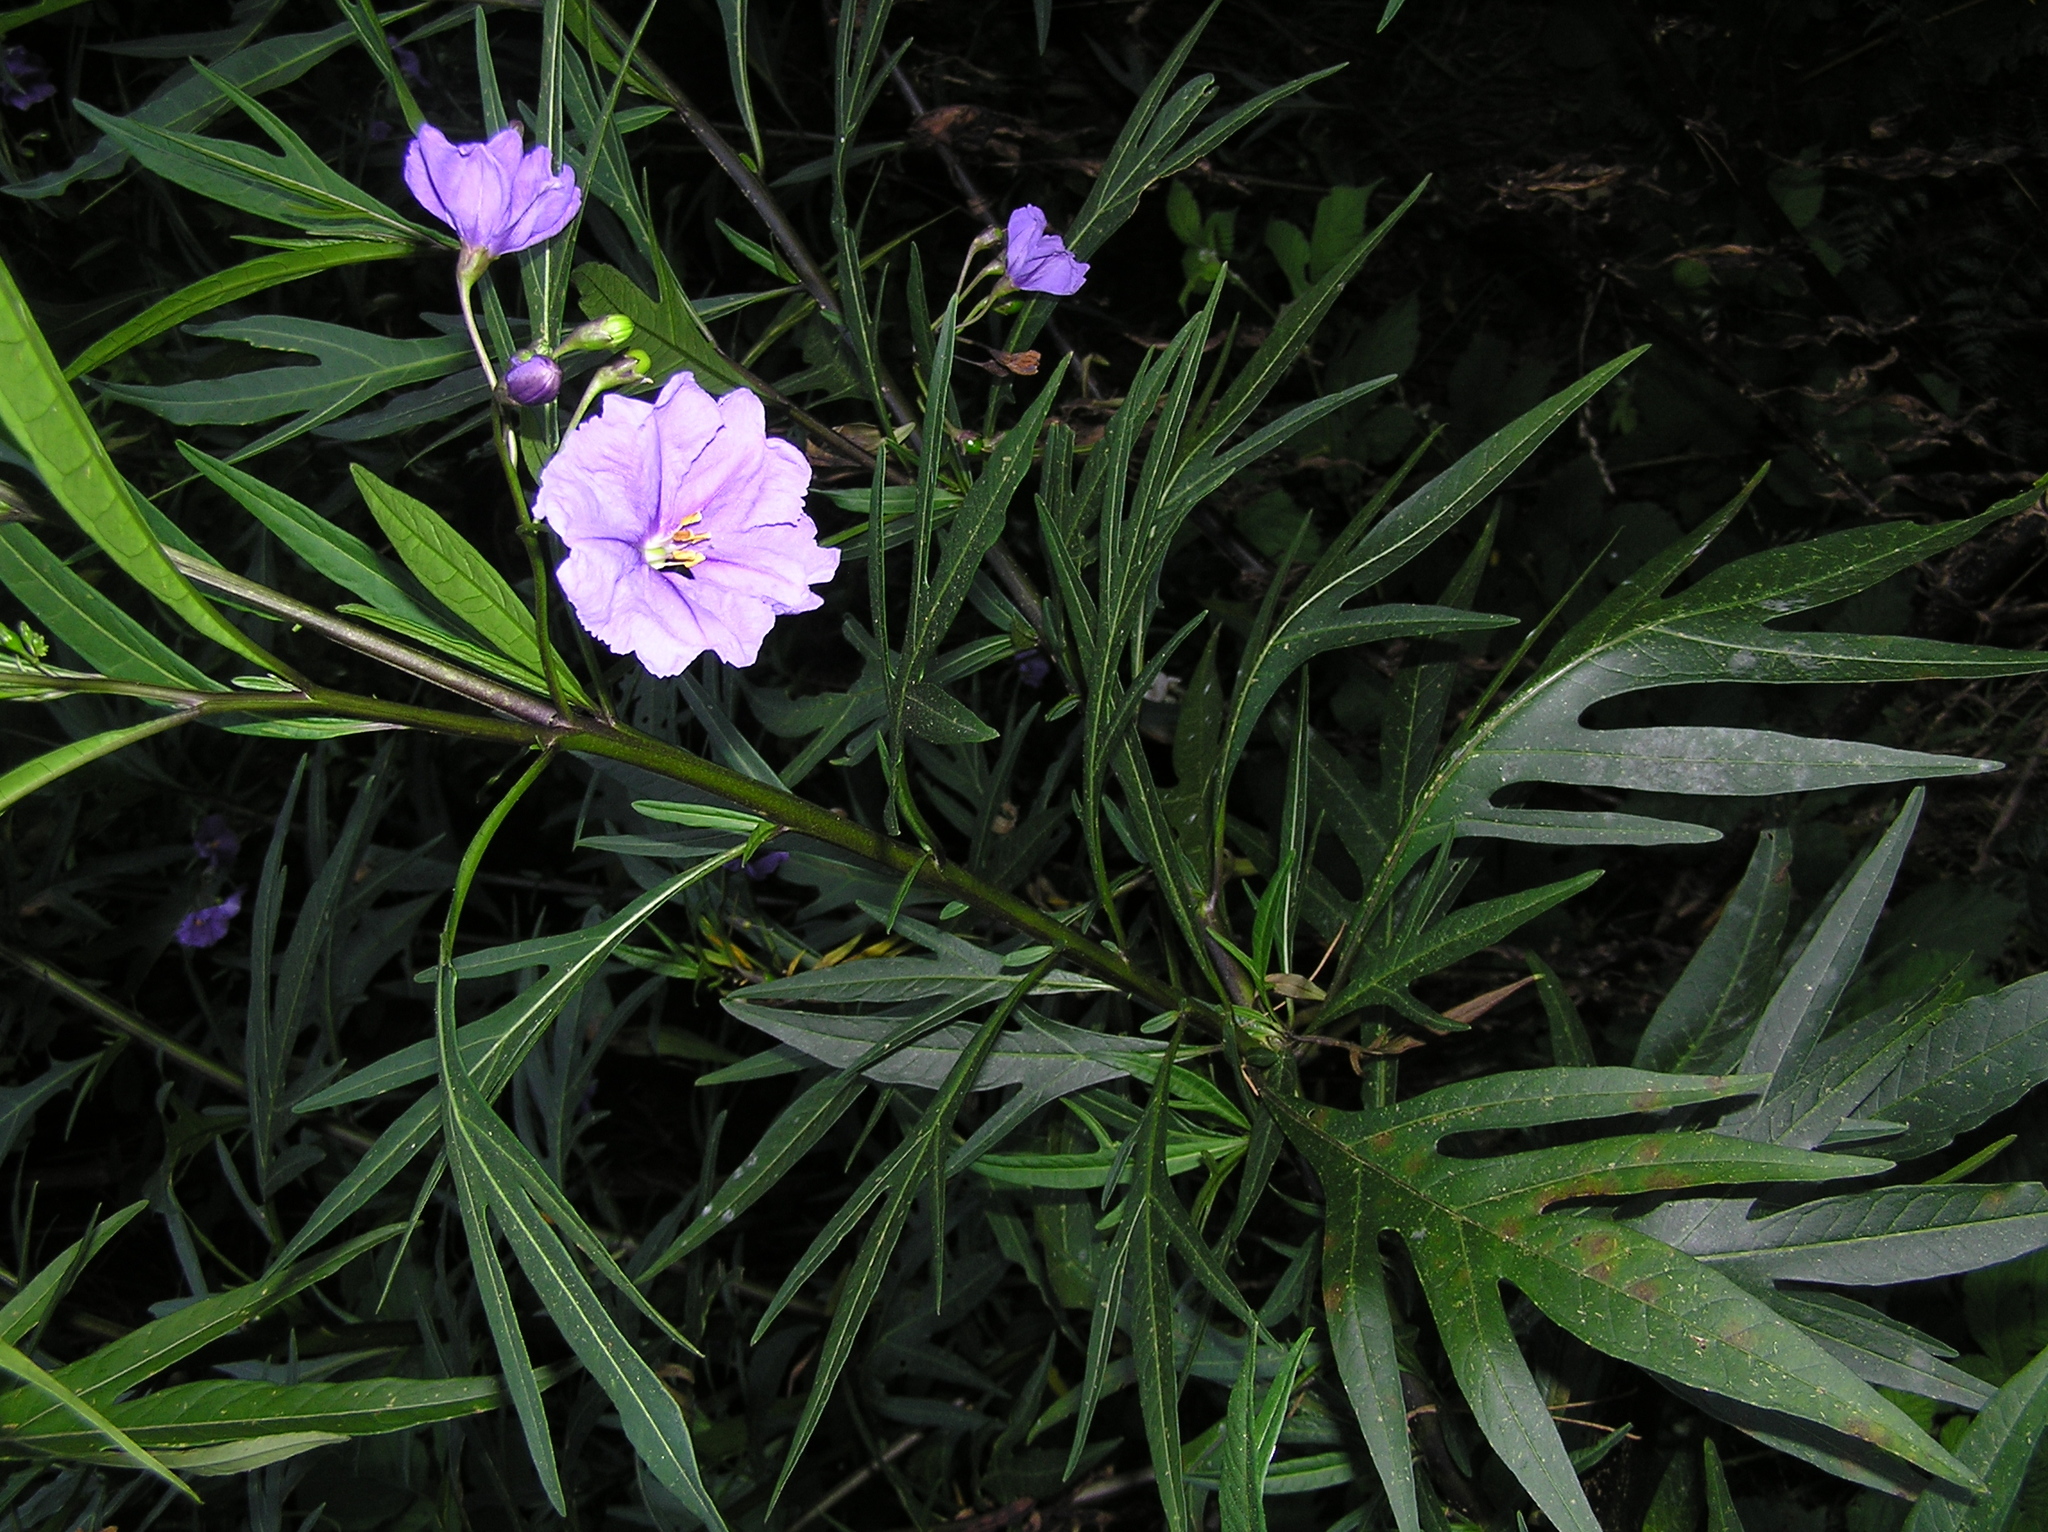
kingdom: Plantae
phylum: Tracheophyta
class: Magnoliopsida
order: Solanales
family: Solanaceae
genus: Solanum
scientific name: Solanum laciniatum
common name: Kangaroo-apple
